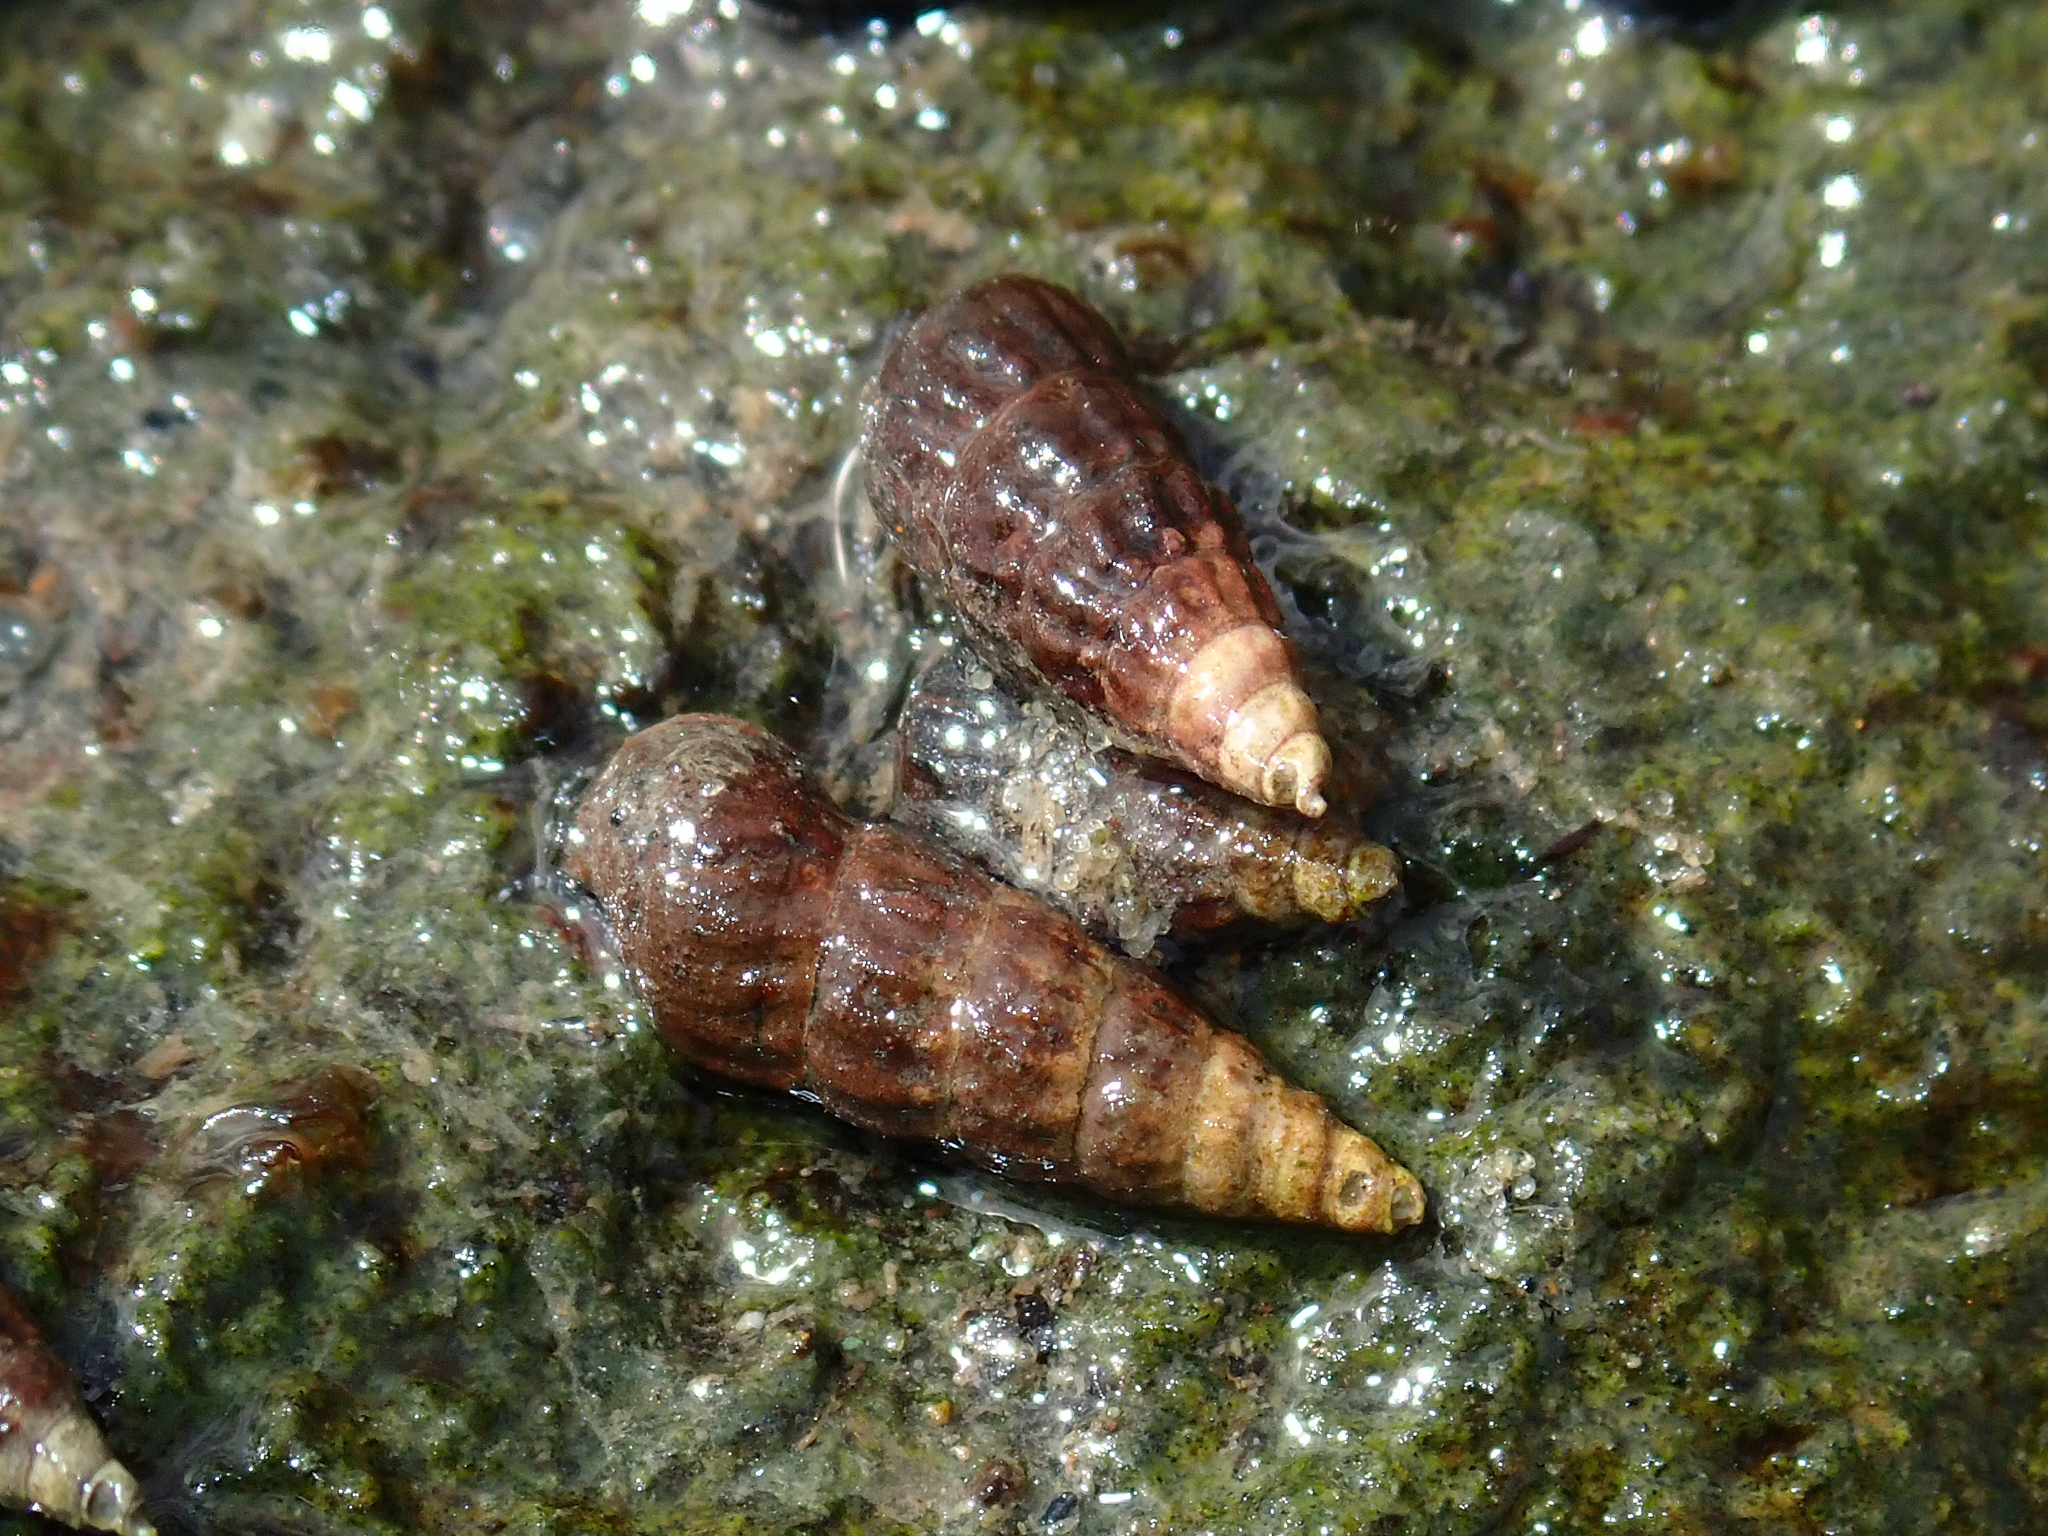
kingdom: Animalia
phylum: Mollusca
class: Gastropoda
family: Batillariidae
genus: Zeacumantus
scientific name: Zeacumantus subcarinatus
